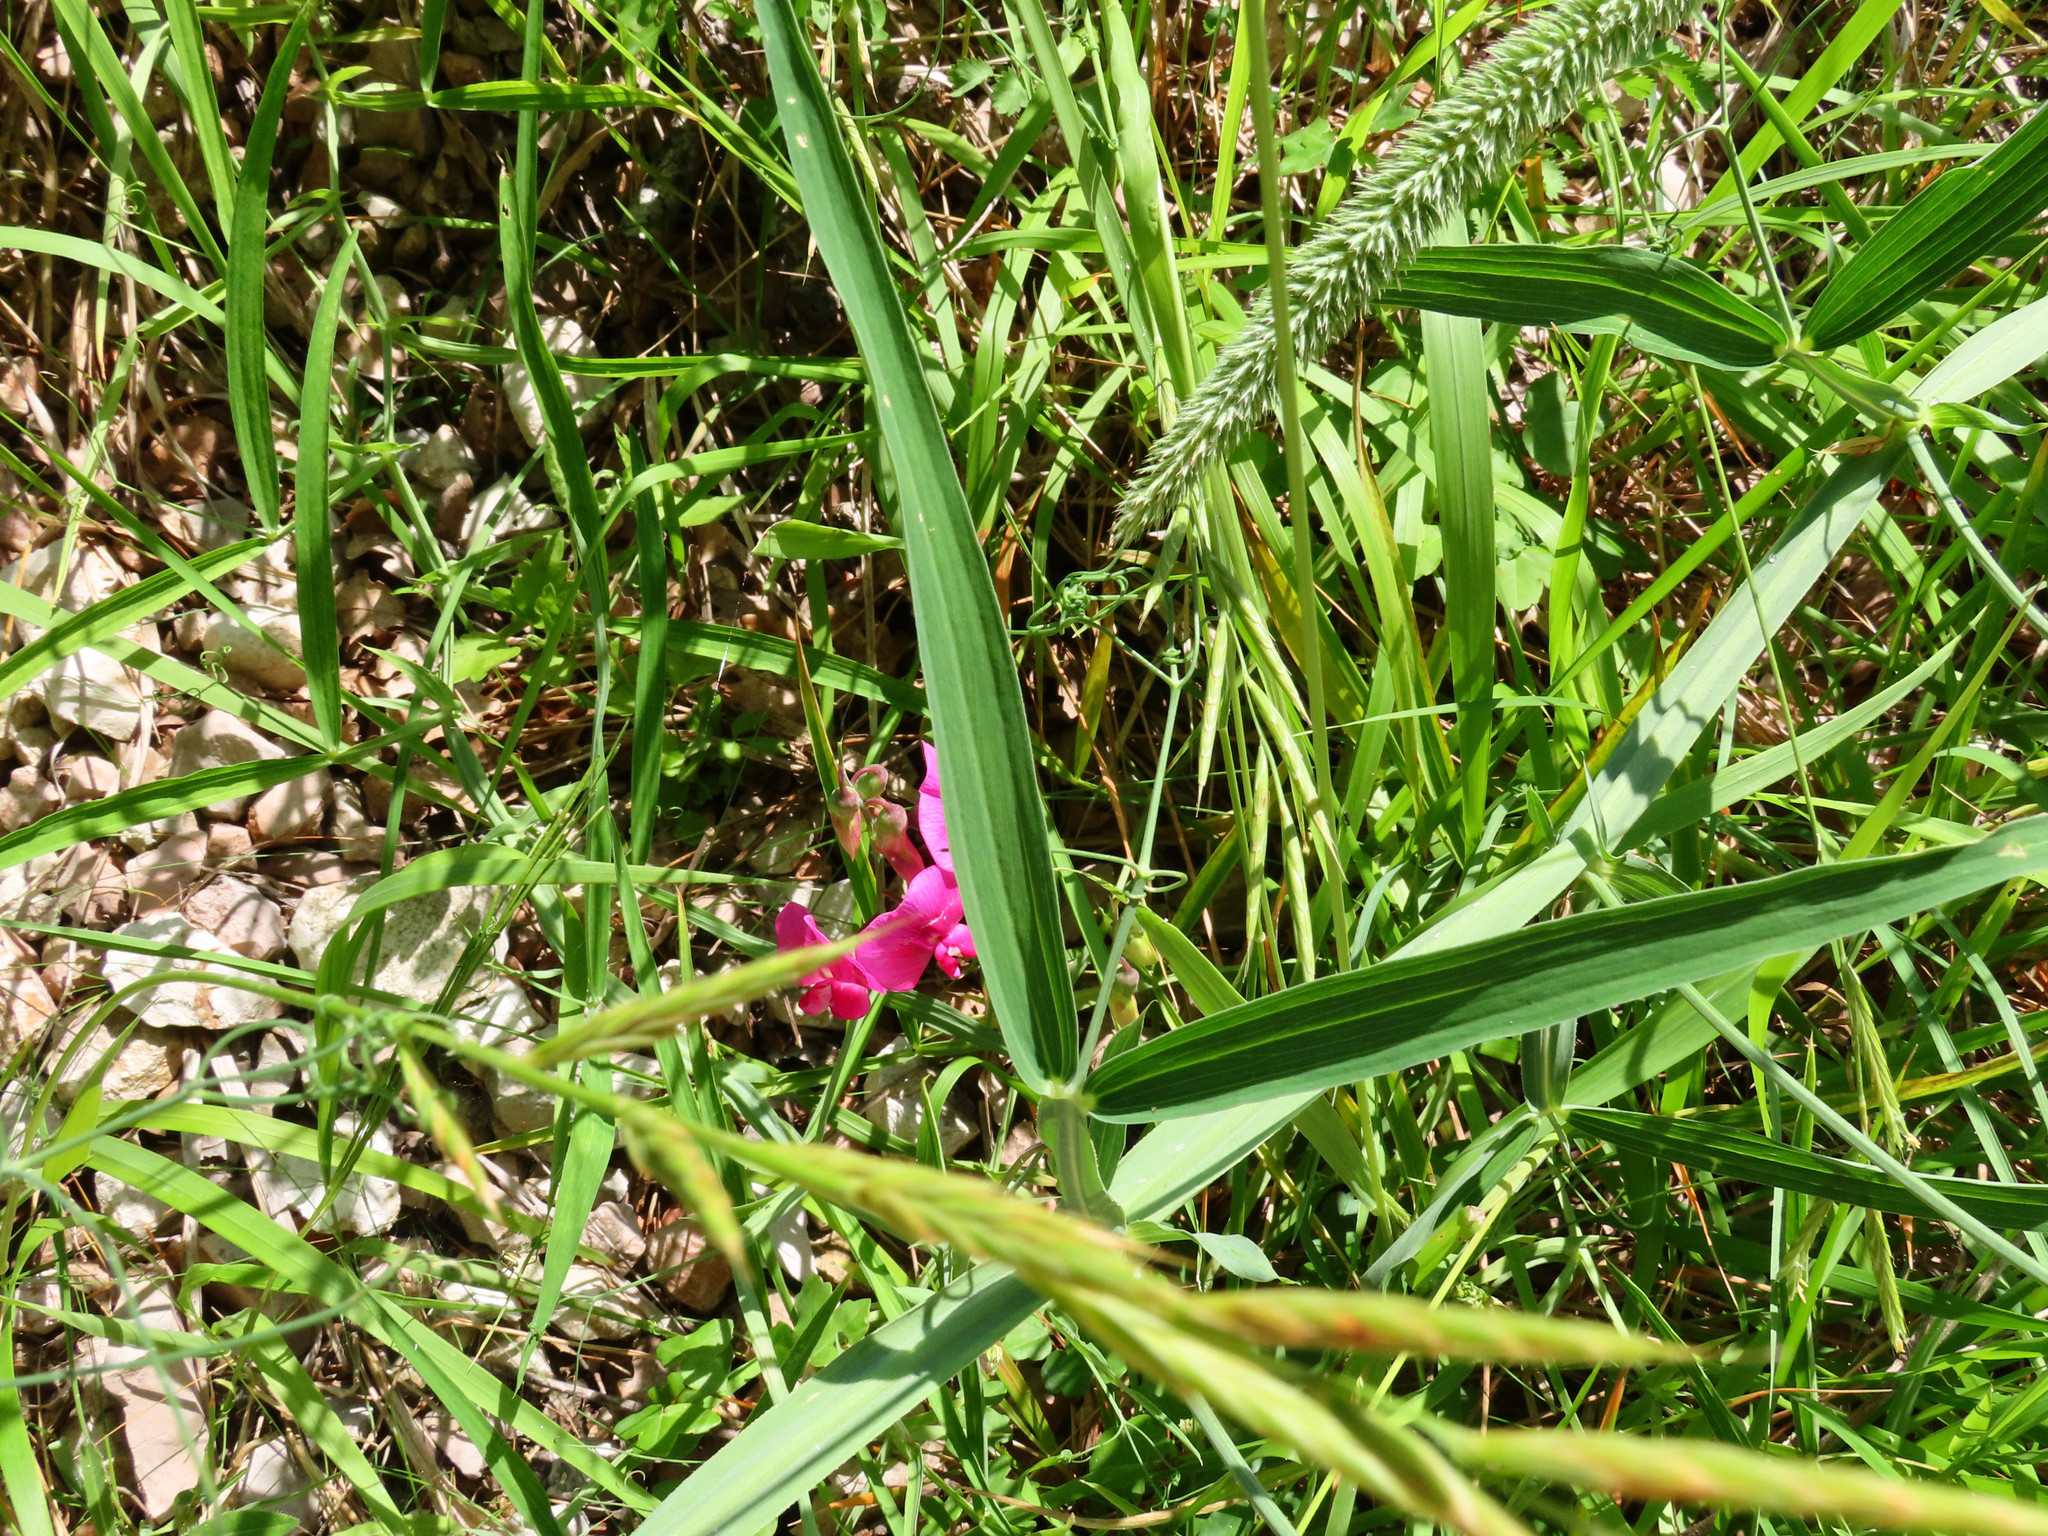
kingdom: Plantae
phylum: Tracheophyta
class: Magnoliopsida
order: Fabales
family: Fabaceae
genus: Lathyrus
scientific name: Lathyrus sylvestris
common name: Flat pea
